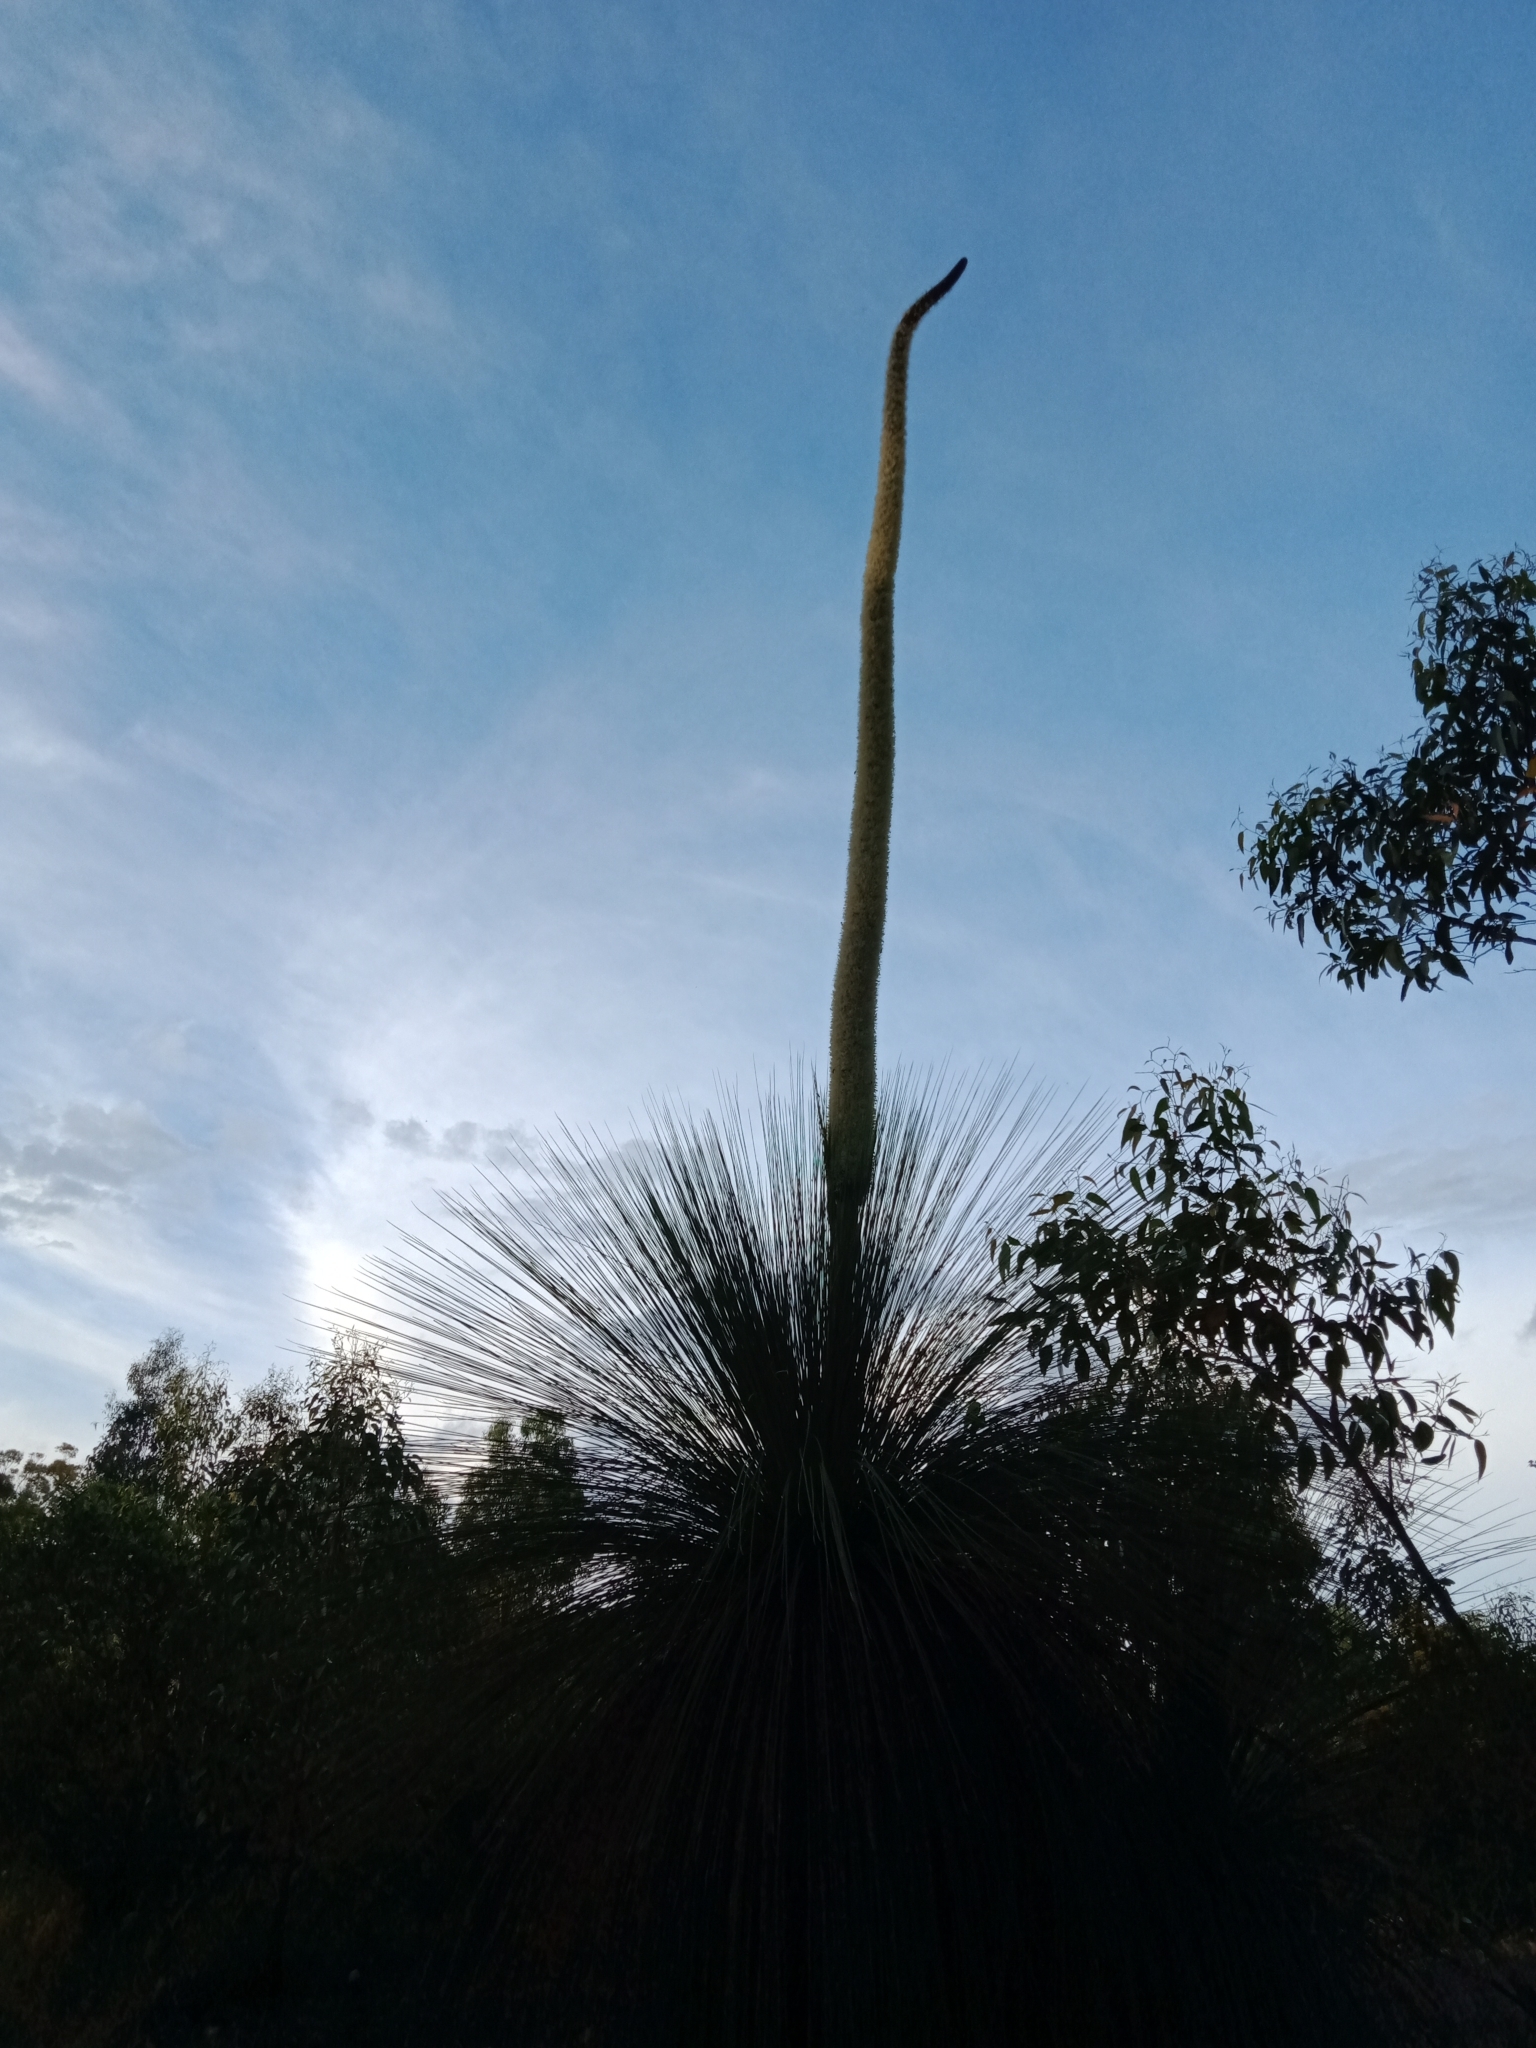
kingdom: Plantae
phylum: Tracheophyta
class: Liliopsida
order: Asparagales
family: Asphodelaceae
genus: Xanthorrhoea
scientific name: Xanthorrhoea australis
